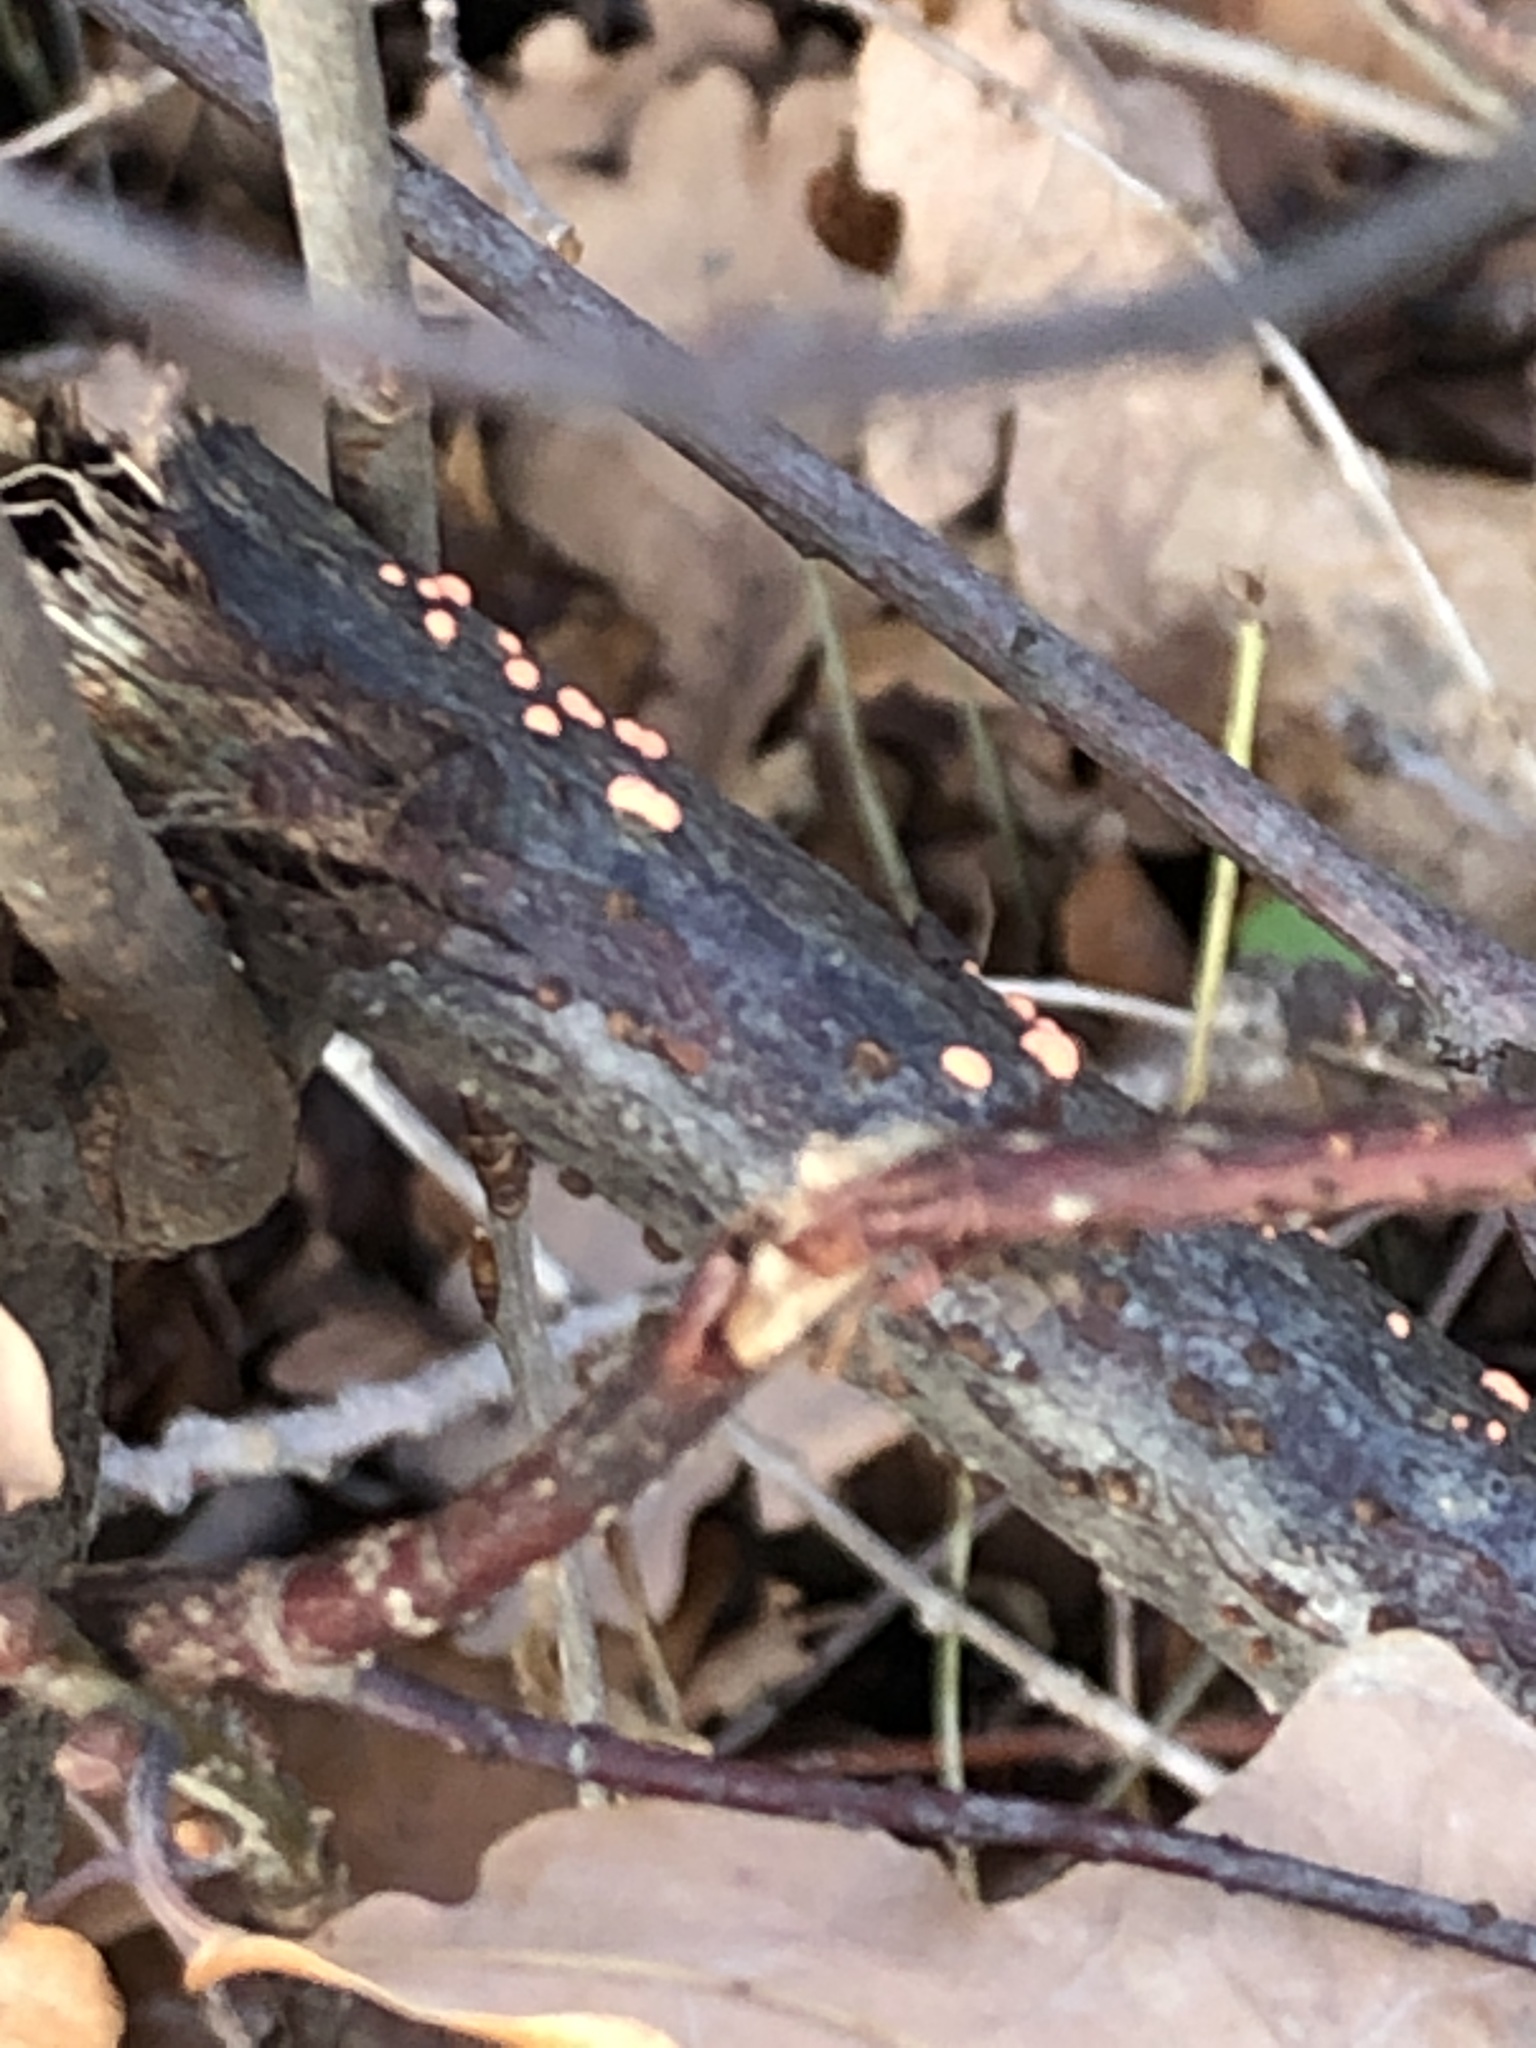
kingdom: Fungi
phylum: Ascomycota
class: Sordariomycetes
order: Hypocreales
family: Nectriaceae
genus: Nectria
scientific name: Nectria cinnabarina
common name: Coral spot
